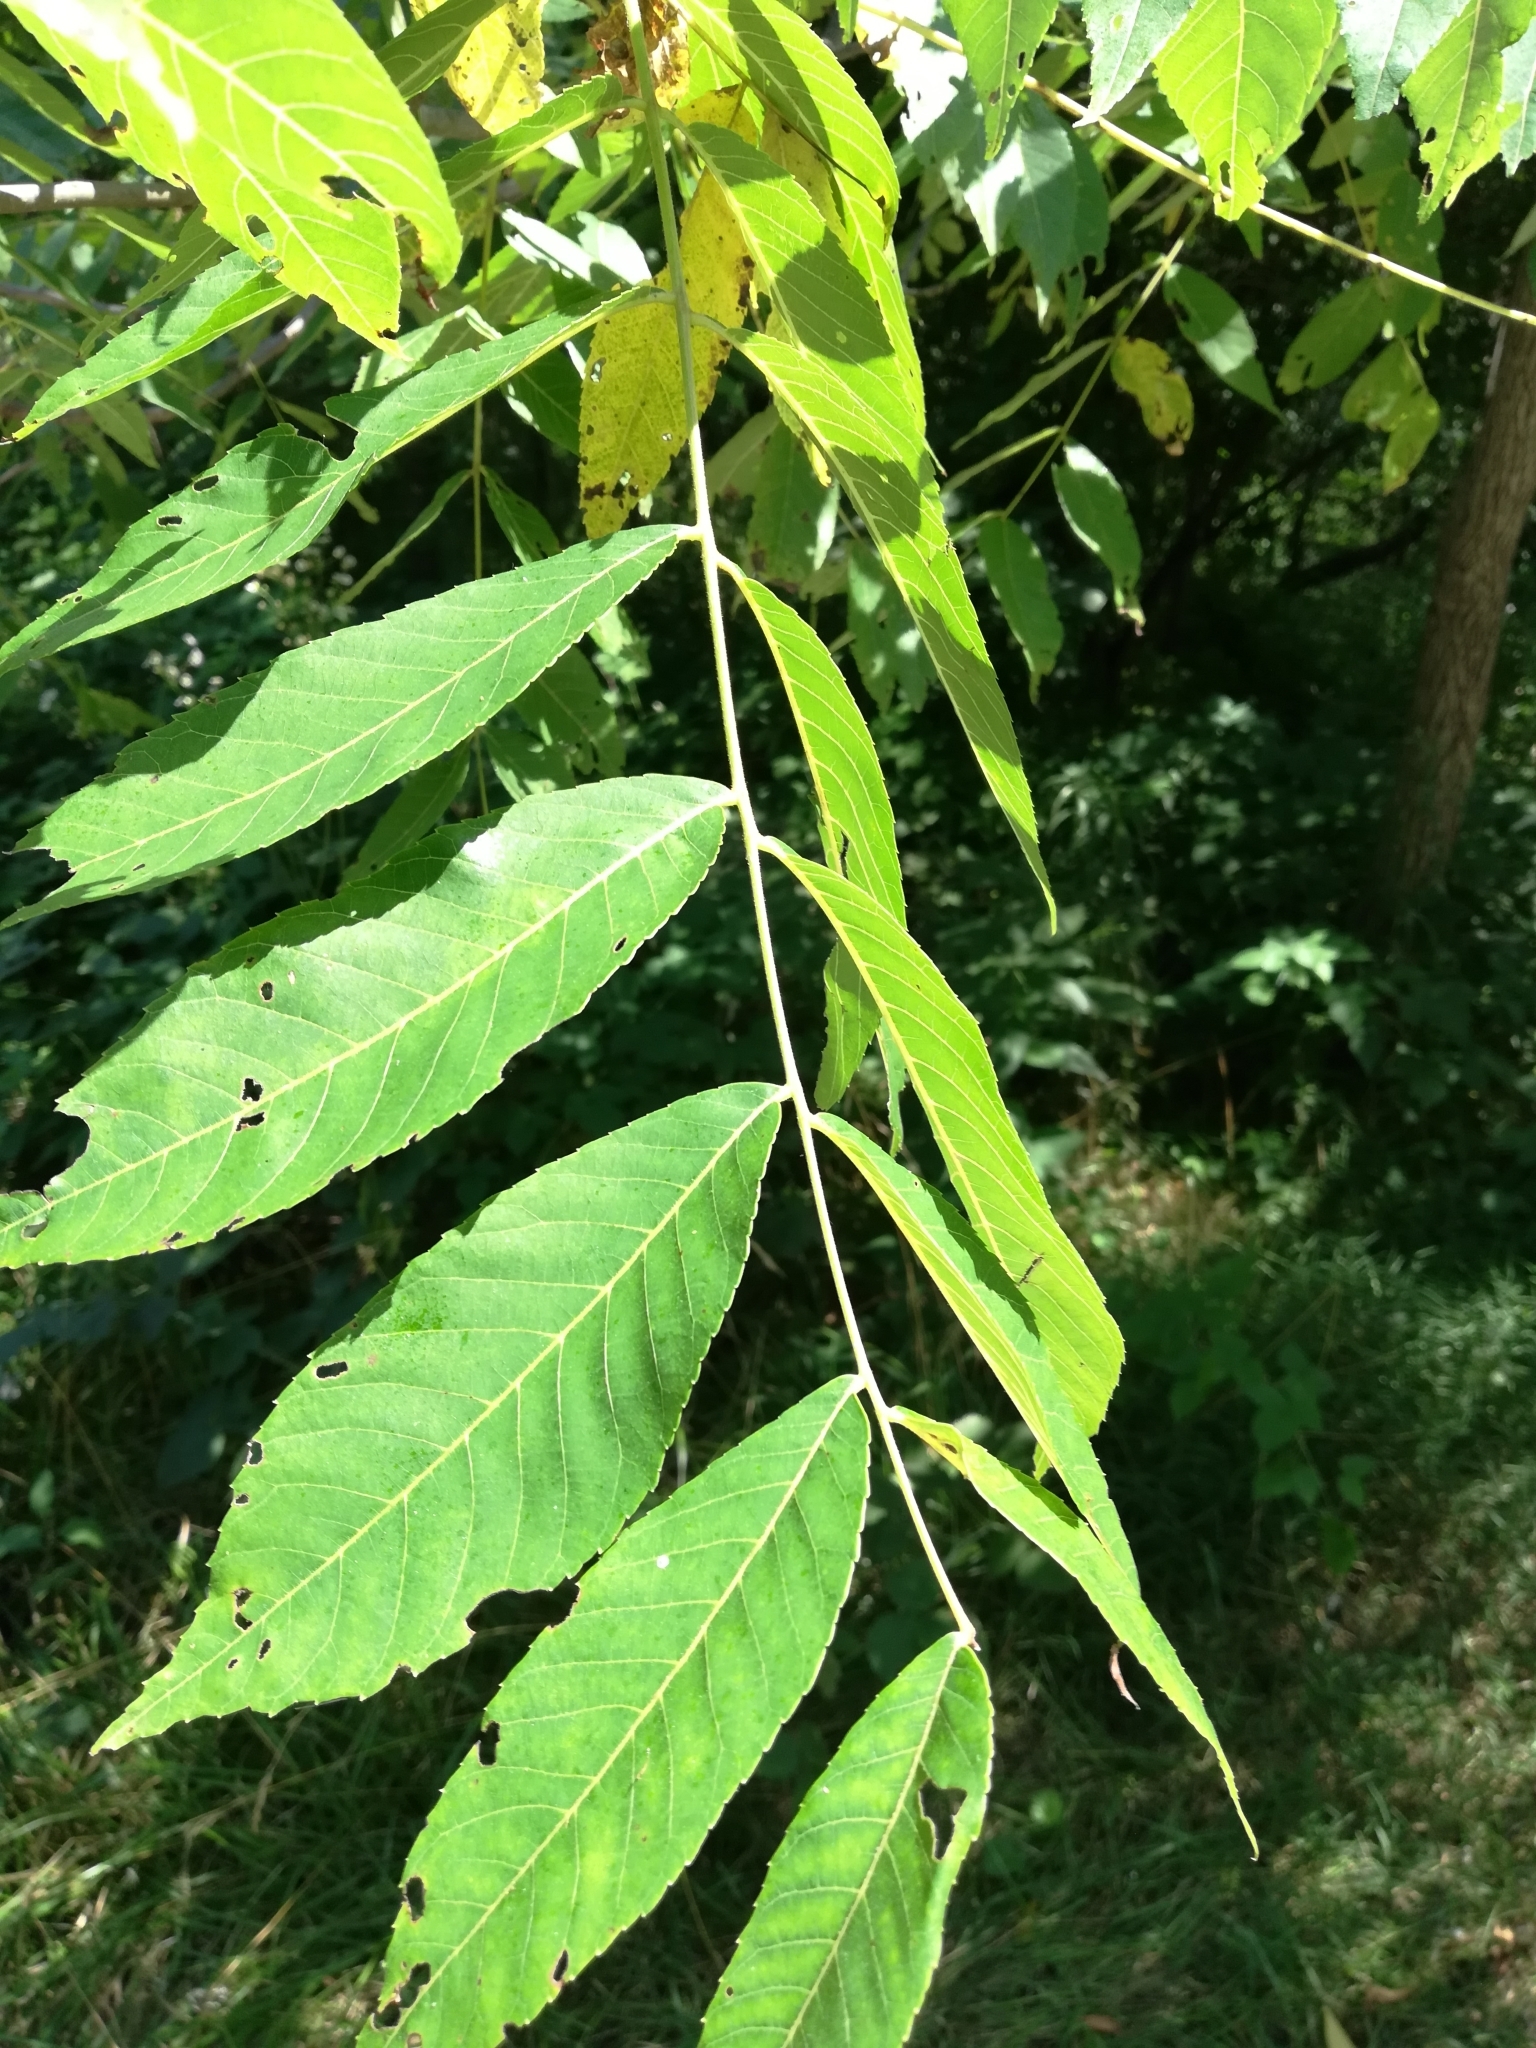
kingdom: Plantae
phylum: Tracheophyta
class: Magnoliopsida
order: Fagales
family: Juglandaceae
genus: Juglans
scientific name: Juglans cinerea
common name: Butternut
